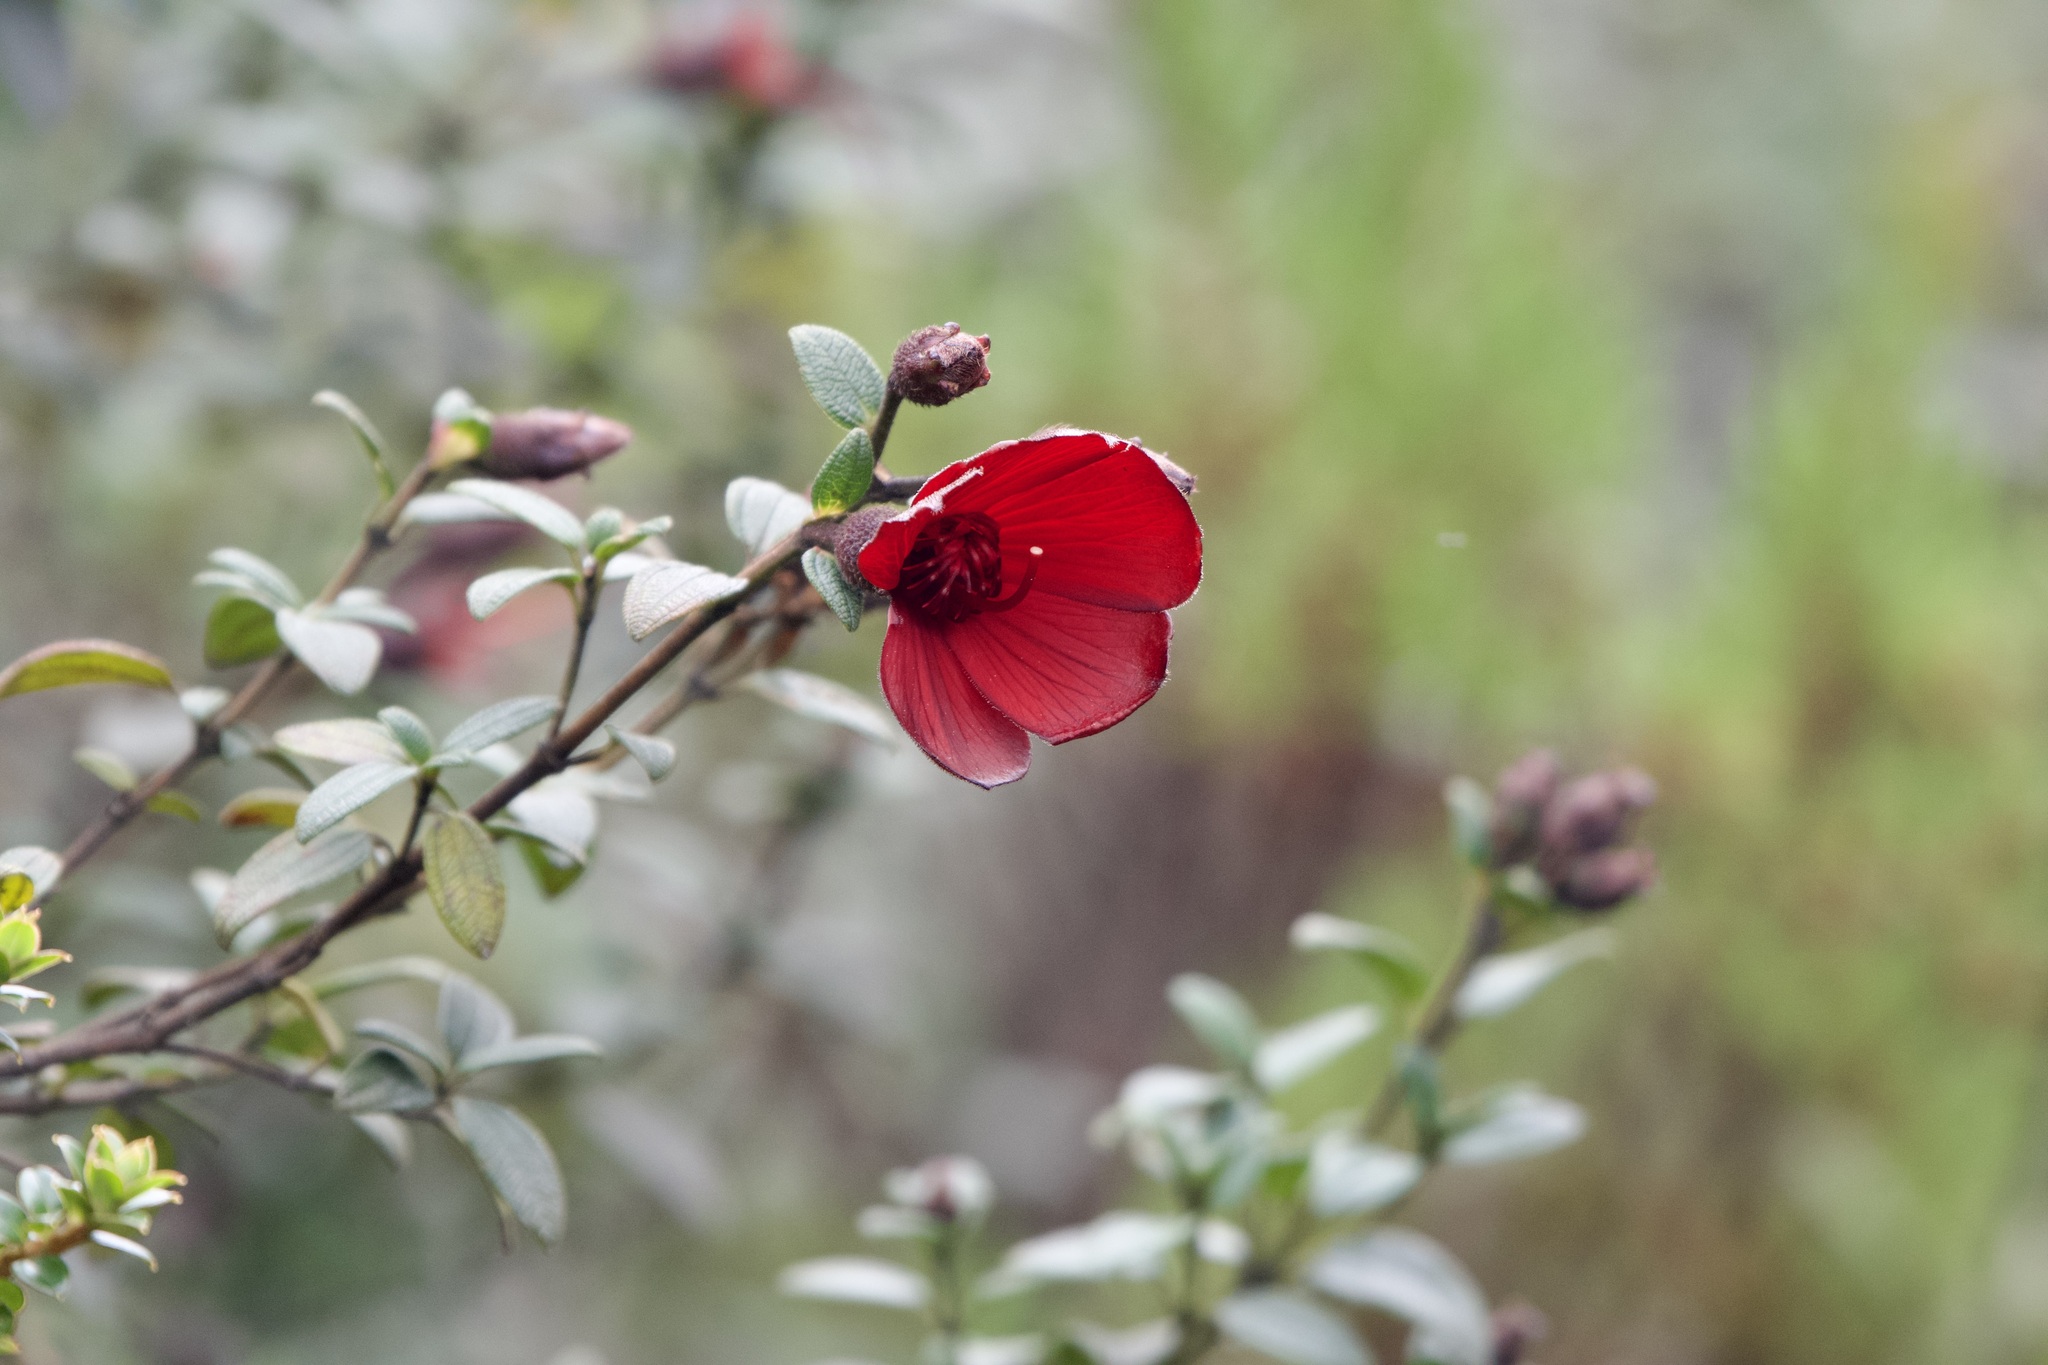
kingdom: Plantae
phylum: Tracheophyta
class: Magnoliopsida
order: Myrtales
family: Melastomataceae
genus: Chaetogastra
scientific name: Chaetogastra grossa
